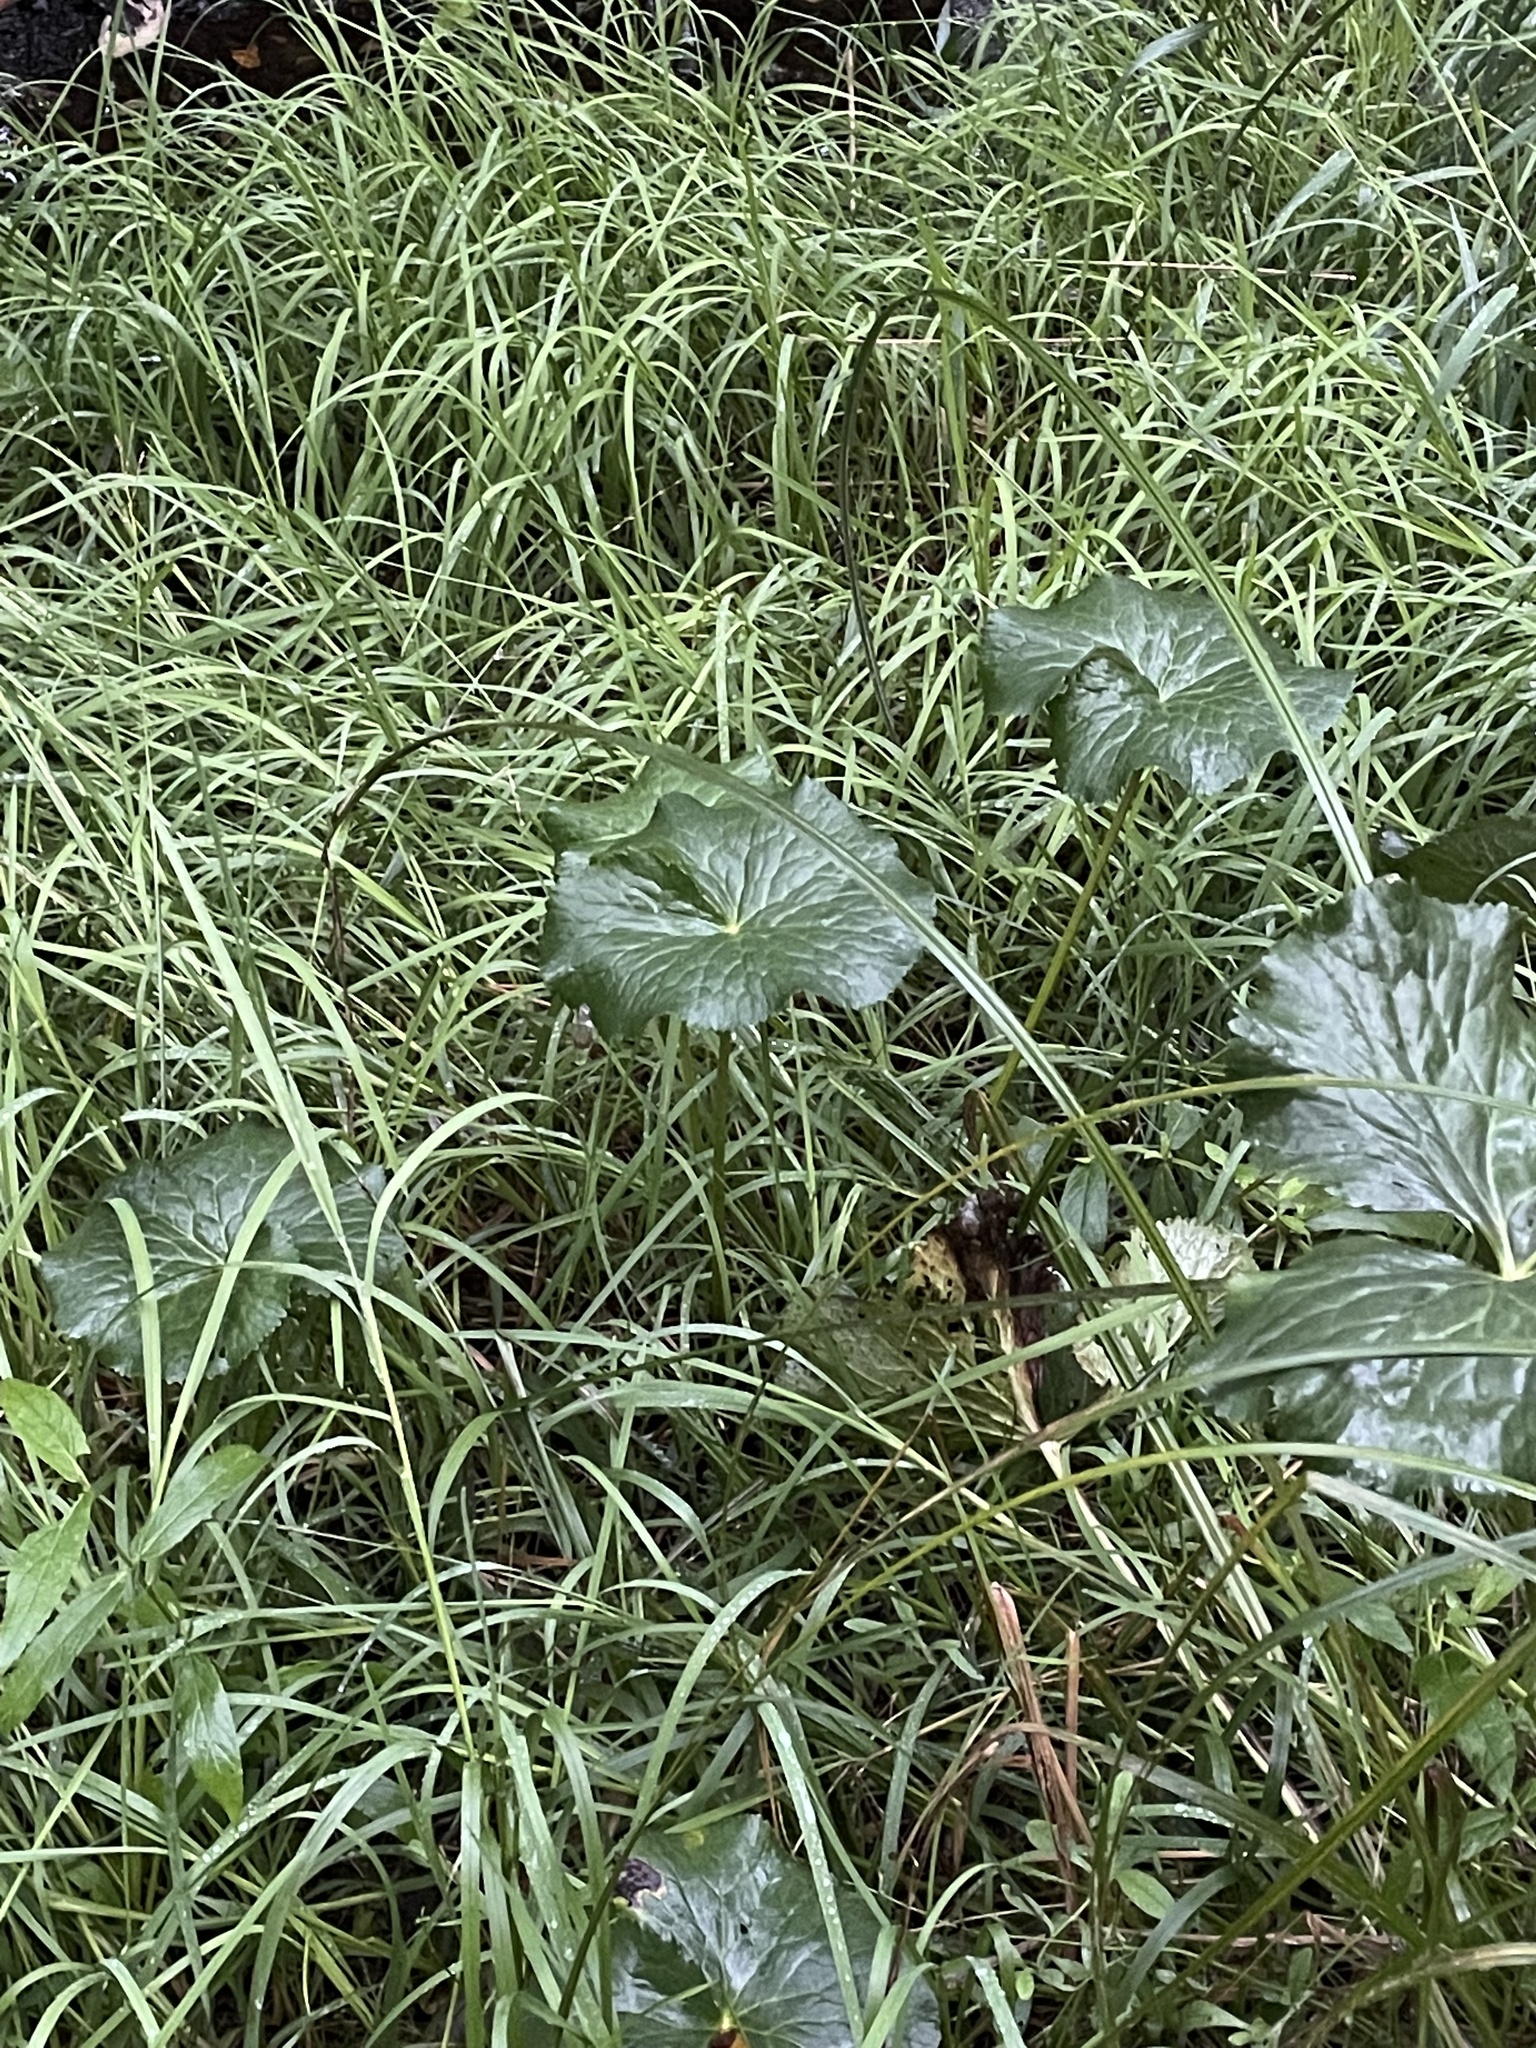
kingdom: Plantae
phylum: Tracheophyta
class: Magnoliopsida
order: Ranunculales
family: Ranunculaceae
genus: Caltha
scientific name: Caltha palustris
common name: Marsh marigold
